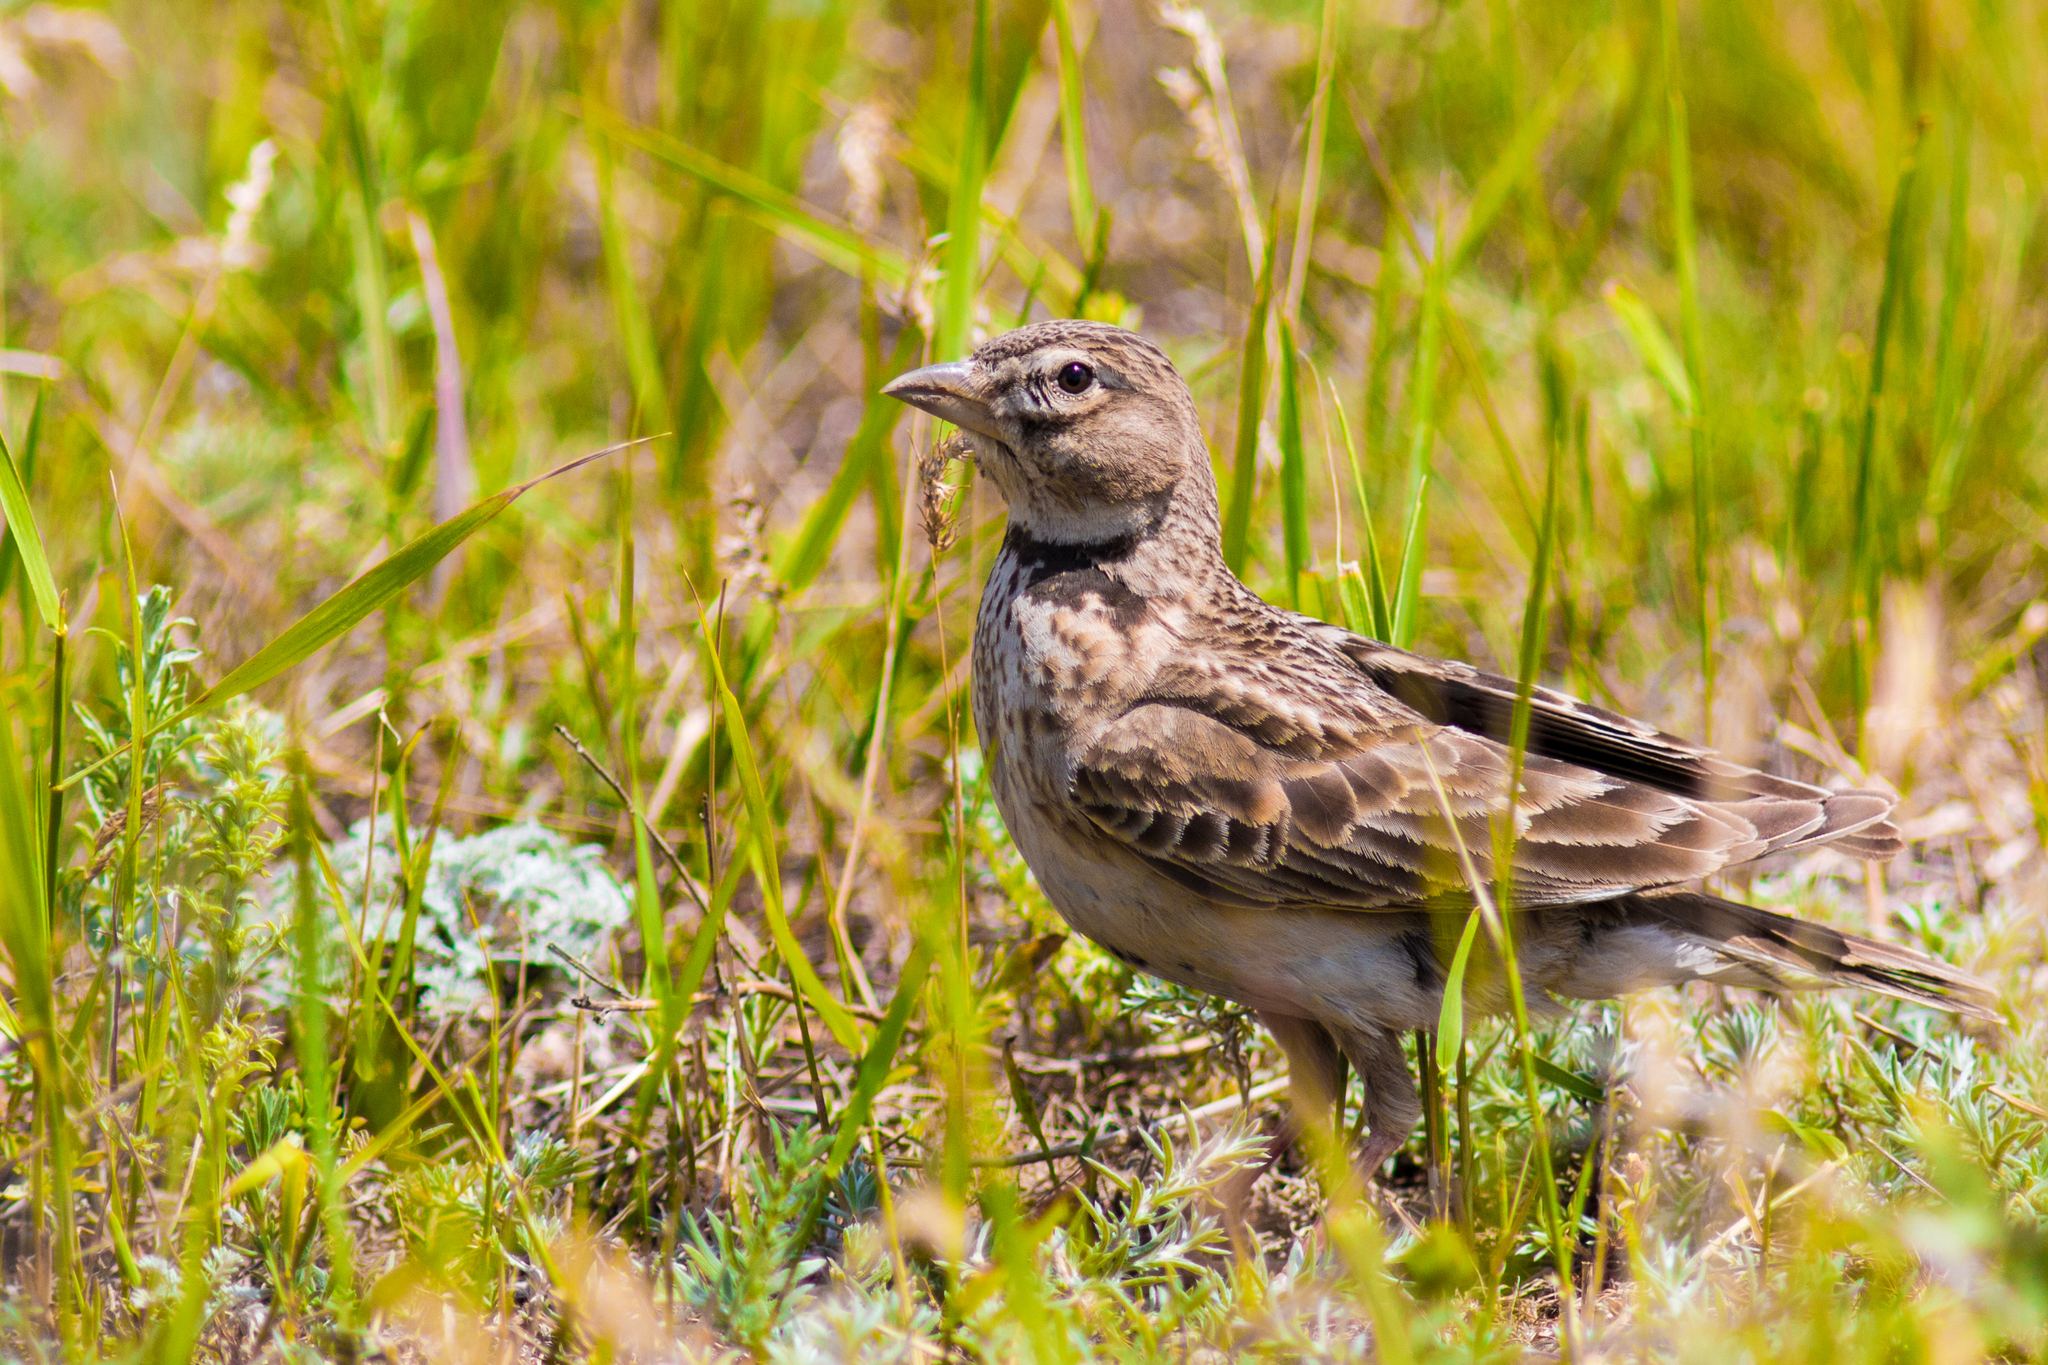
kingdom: Animalia
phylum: Chordata
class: Aves
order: Passeriformes
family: Alaudidae
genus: Melanocorypha
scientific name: Melanocorypha calandra
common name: Calandra lark
